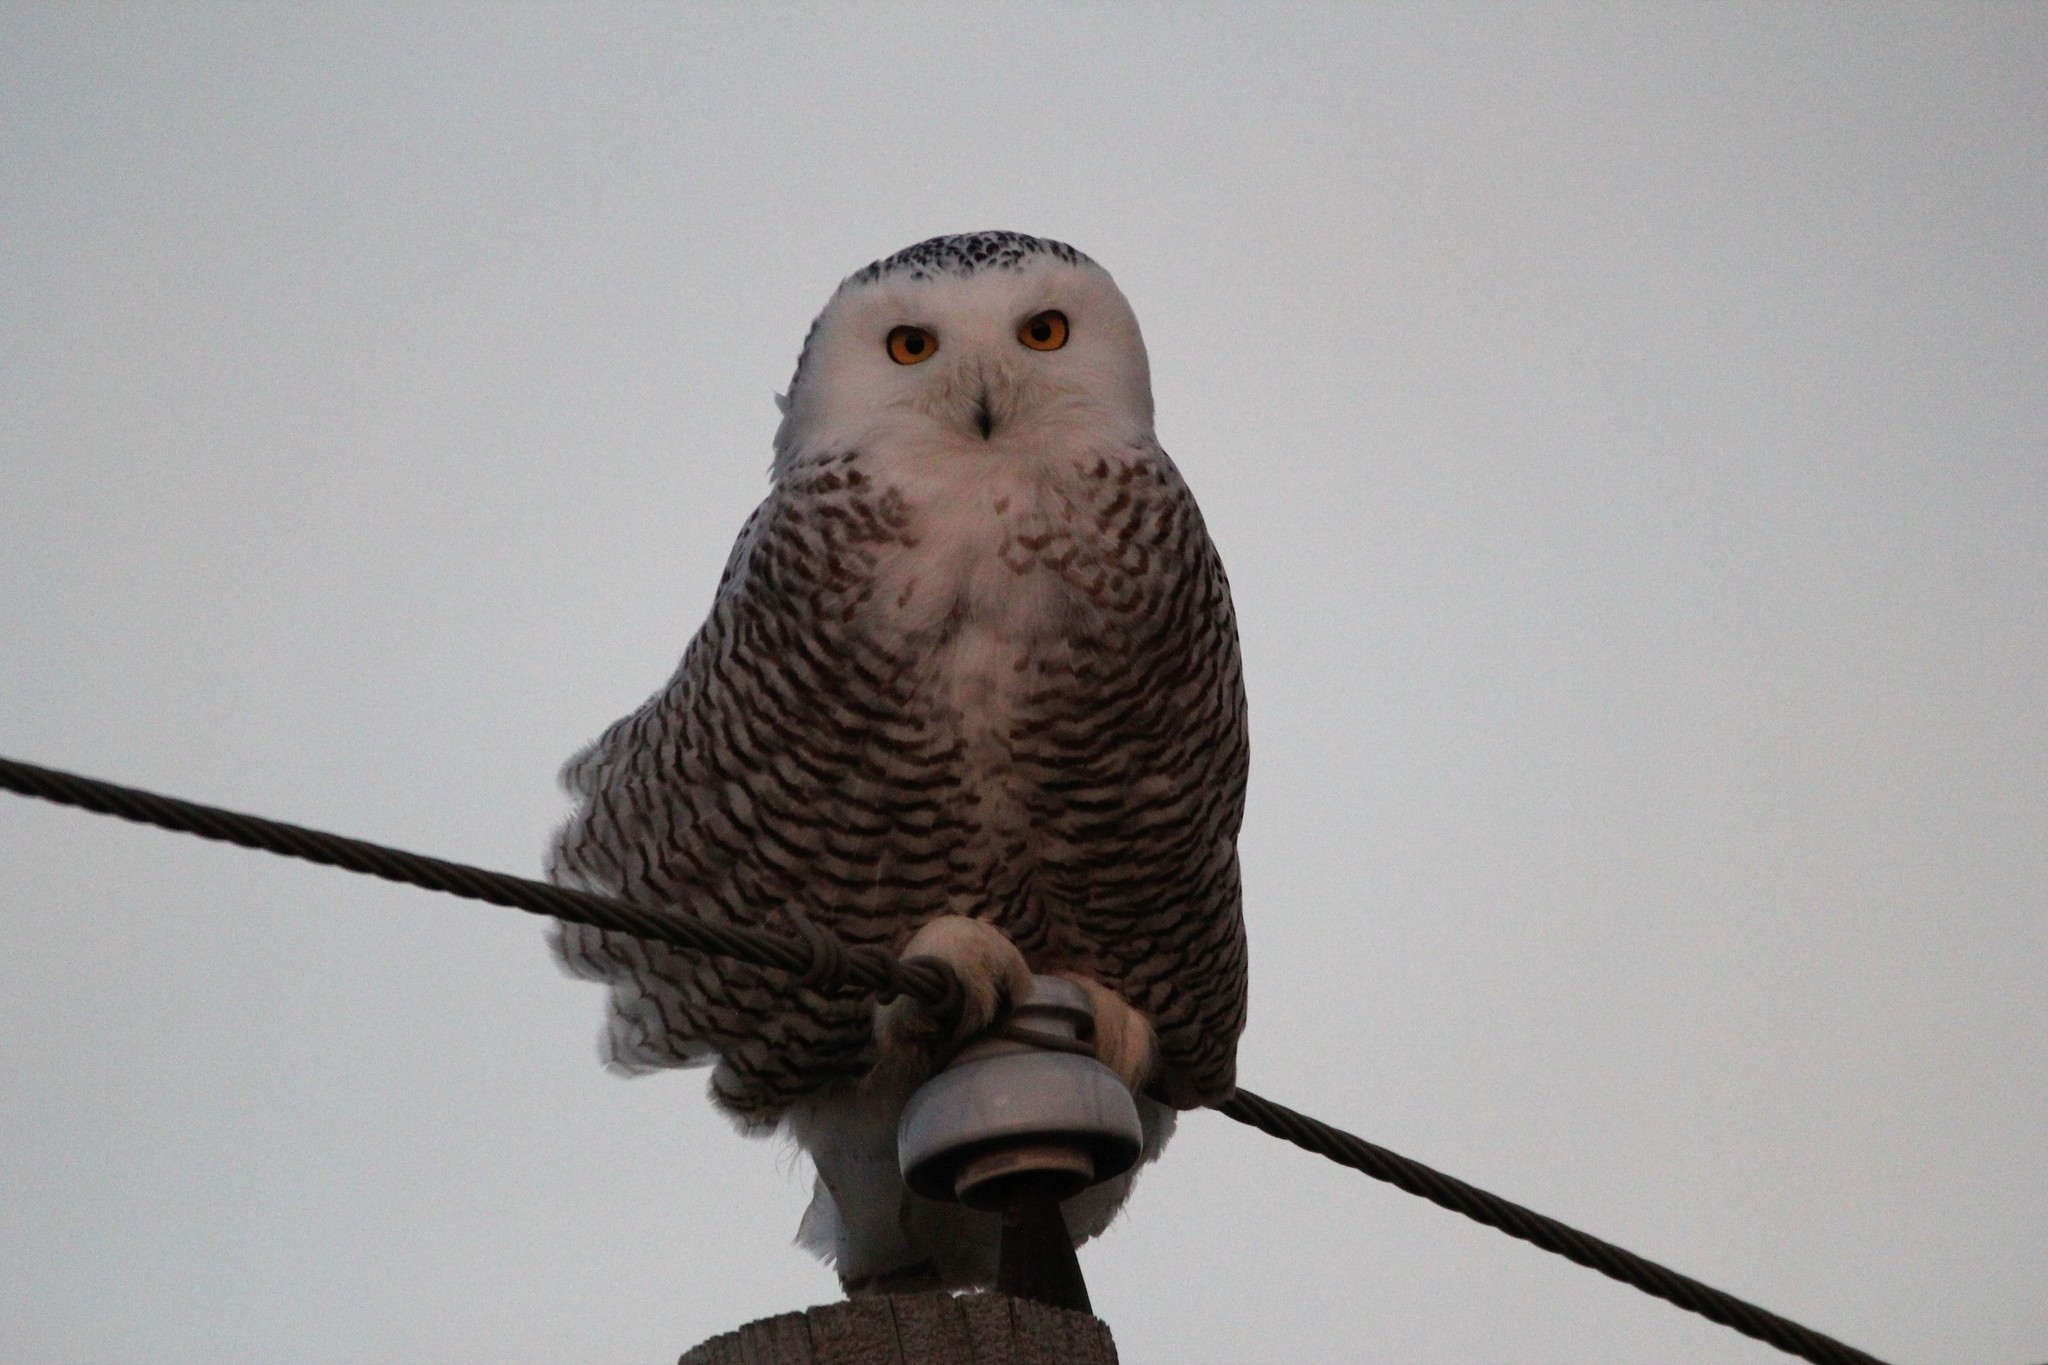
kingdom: Animalia
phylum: Chordata
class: Aves
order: Strigiformes
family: Strigidae
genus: Bubo
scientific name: Bubo scandiacus
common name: Snowy owl
